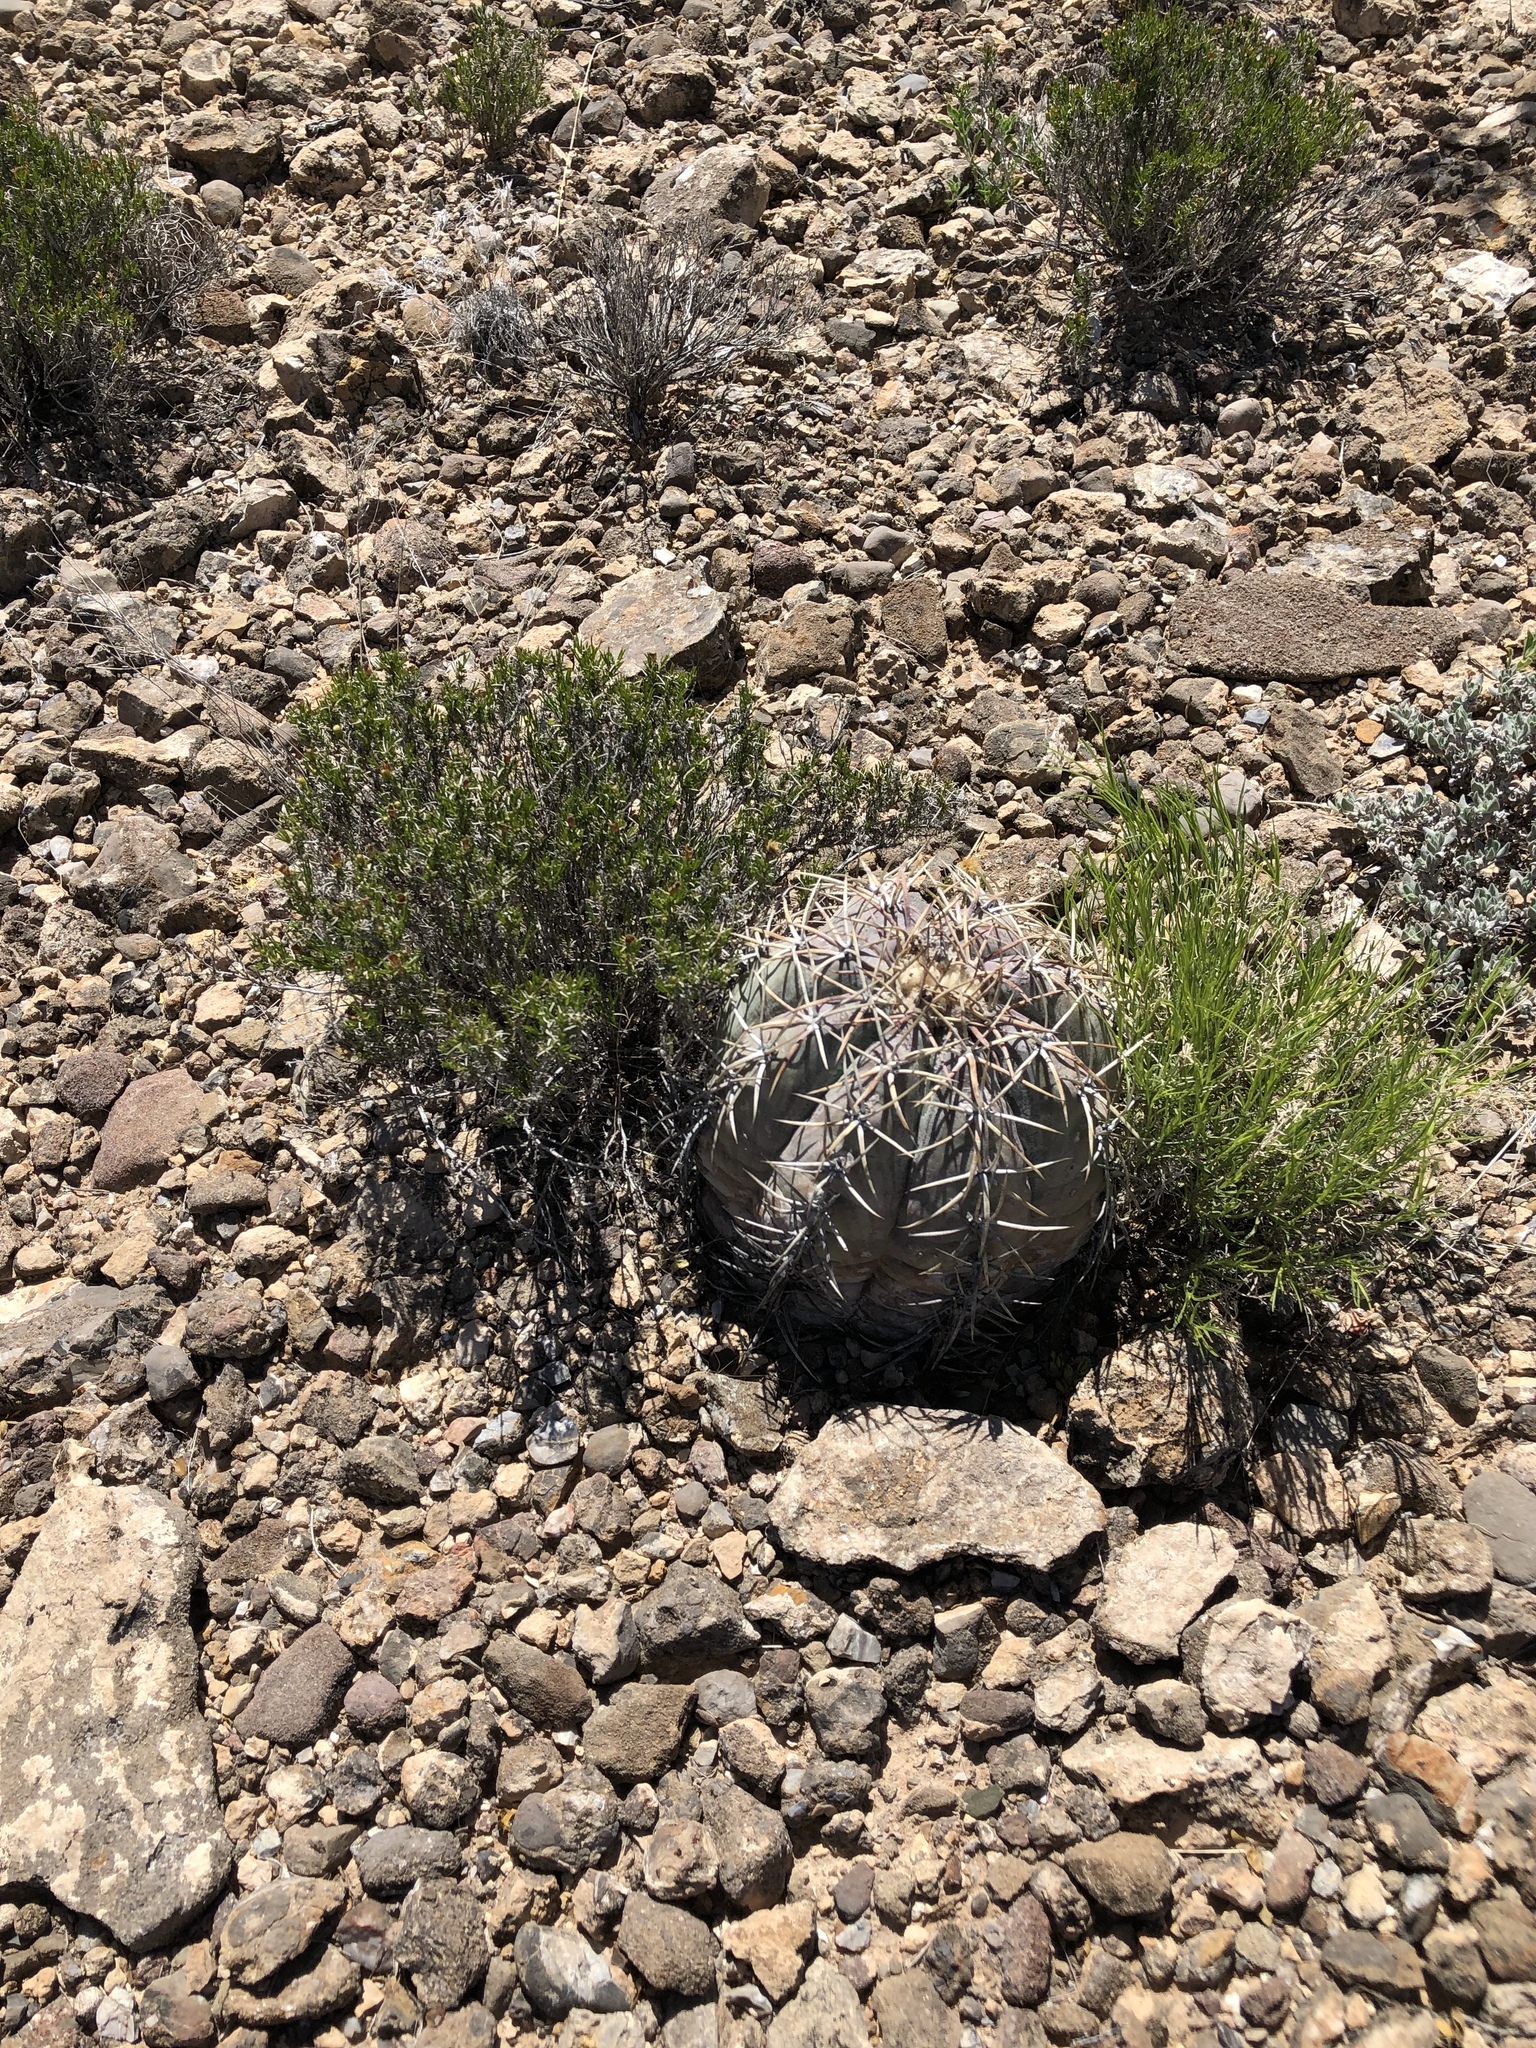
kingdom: Plantae
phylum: Tracheophyta
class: Magnoliopsida
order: Caryophyllales
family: Cactaceae
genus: Echinocactus
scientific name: Echinocactus horizonthalonius
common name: Devilshead
